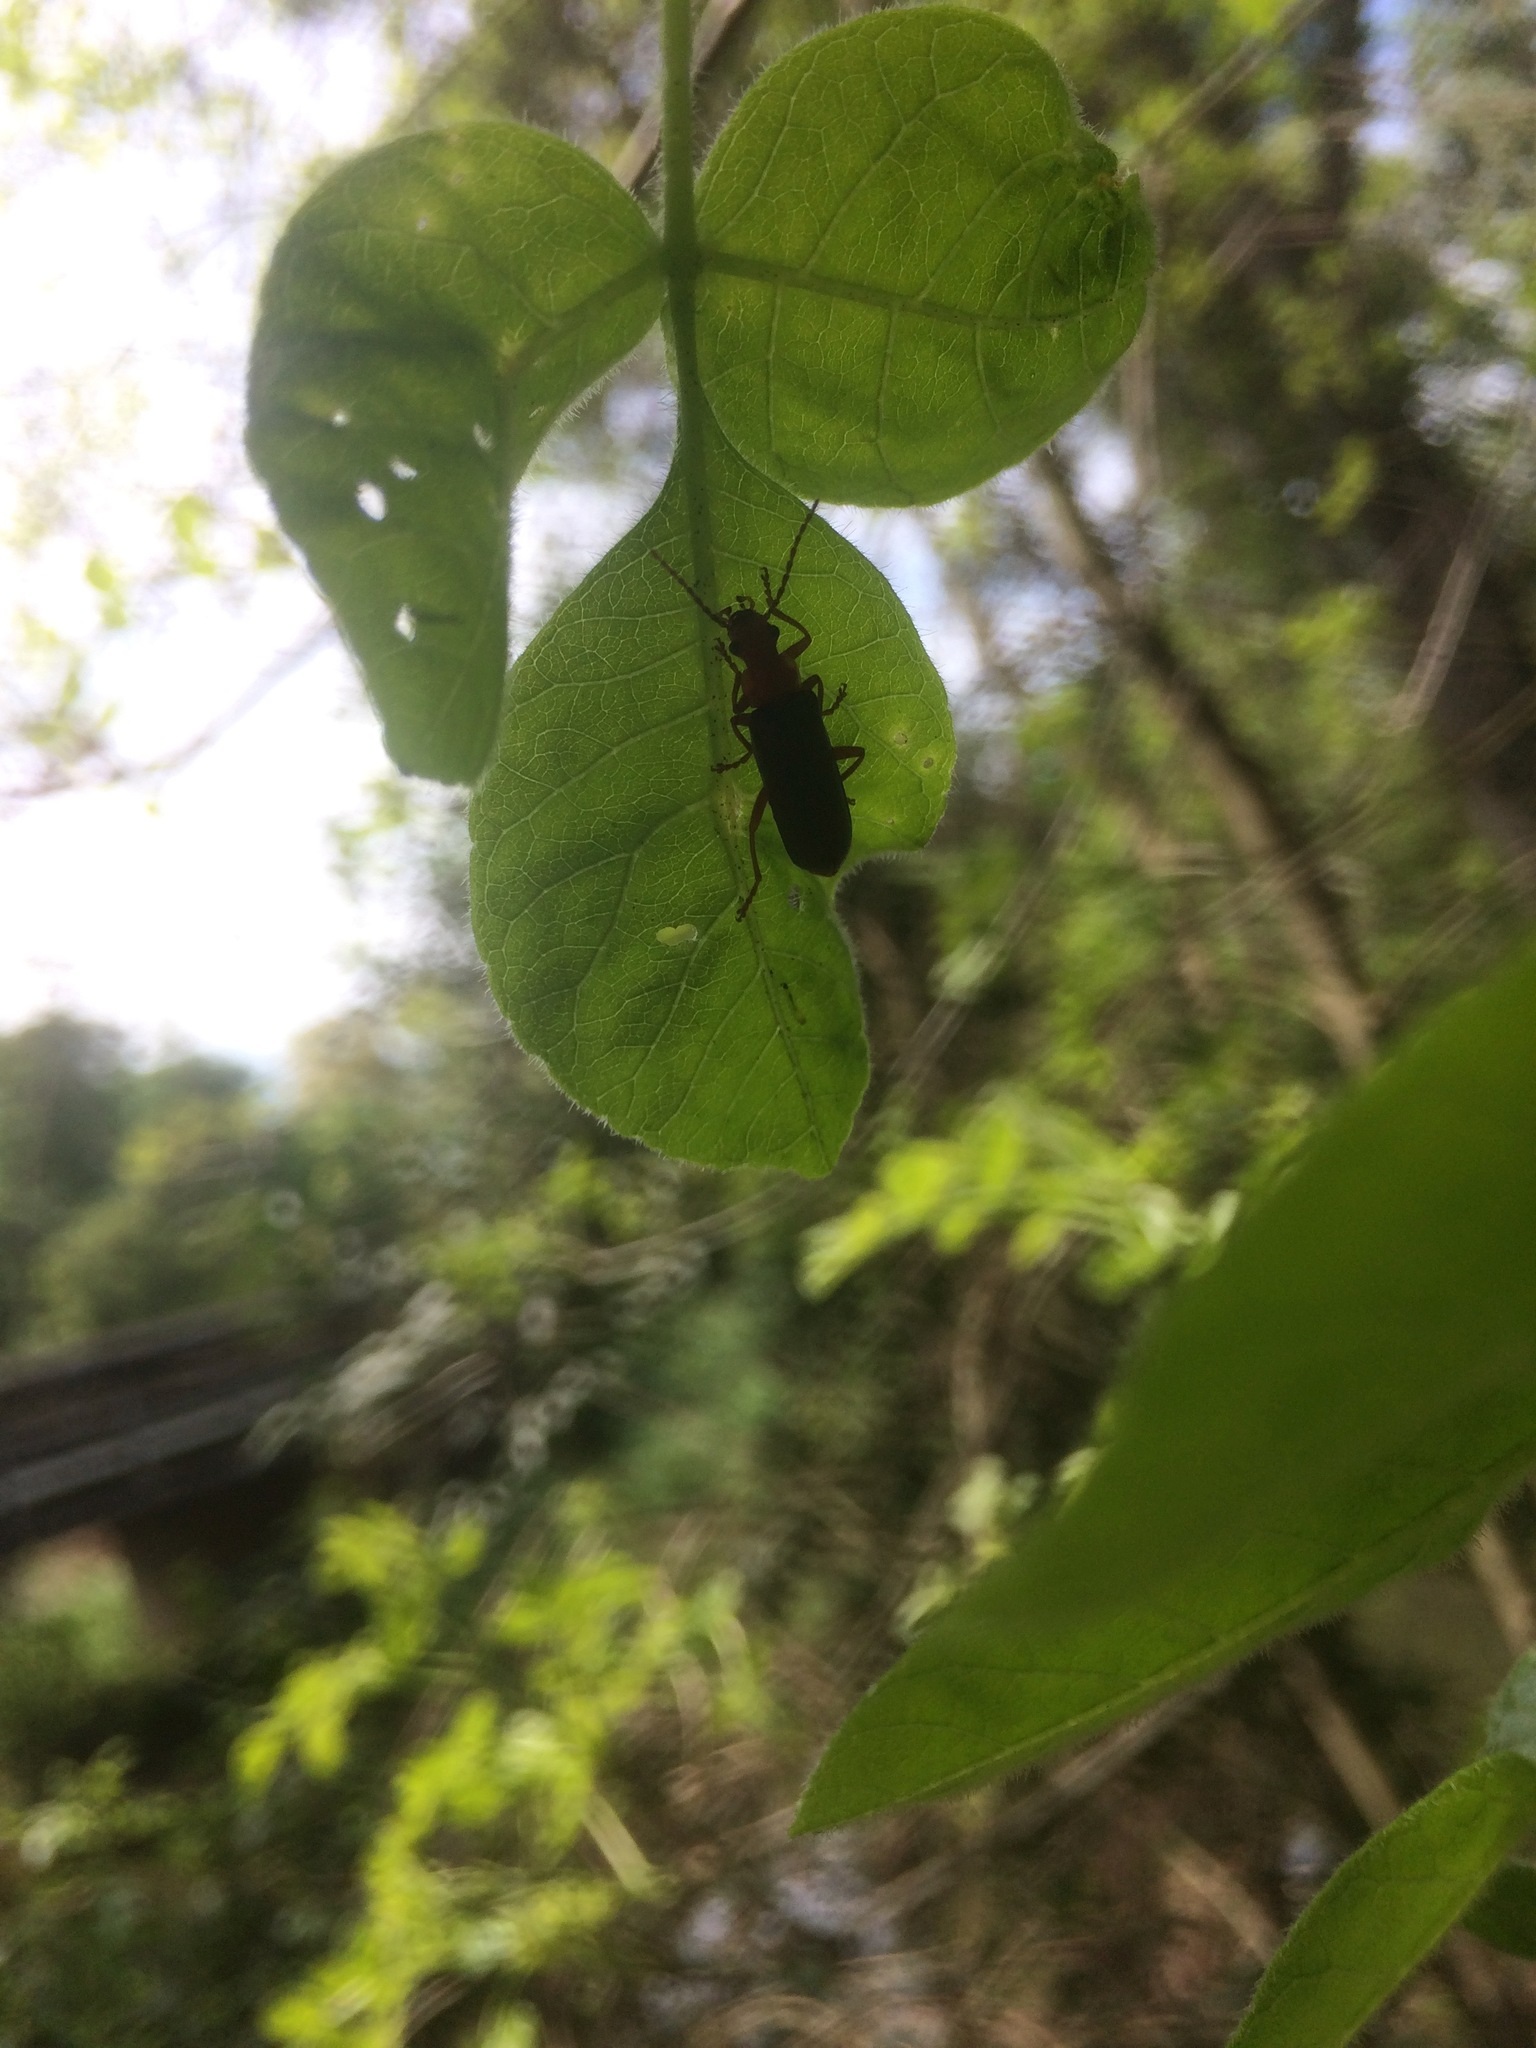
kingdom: Animalia
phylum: Arthropoda
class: Insecta
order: Coleoptera
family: Cantharidae
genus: Podabrus
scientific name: Podabrus pruinosus
